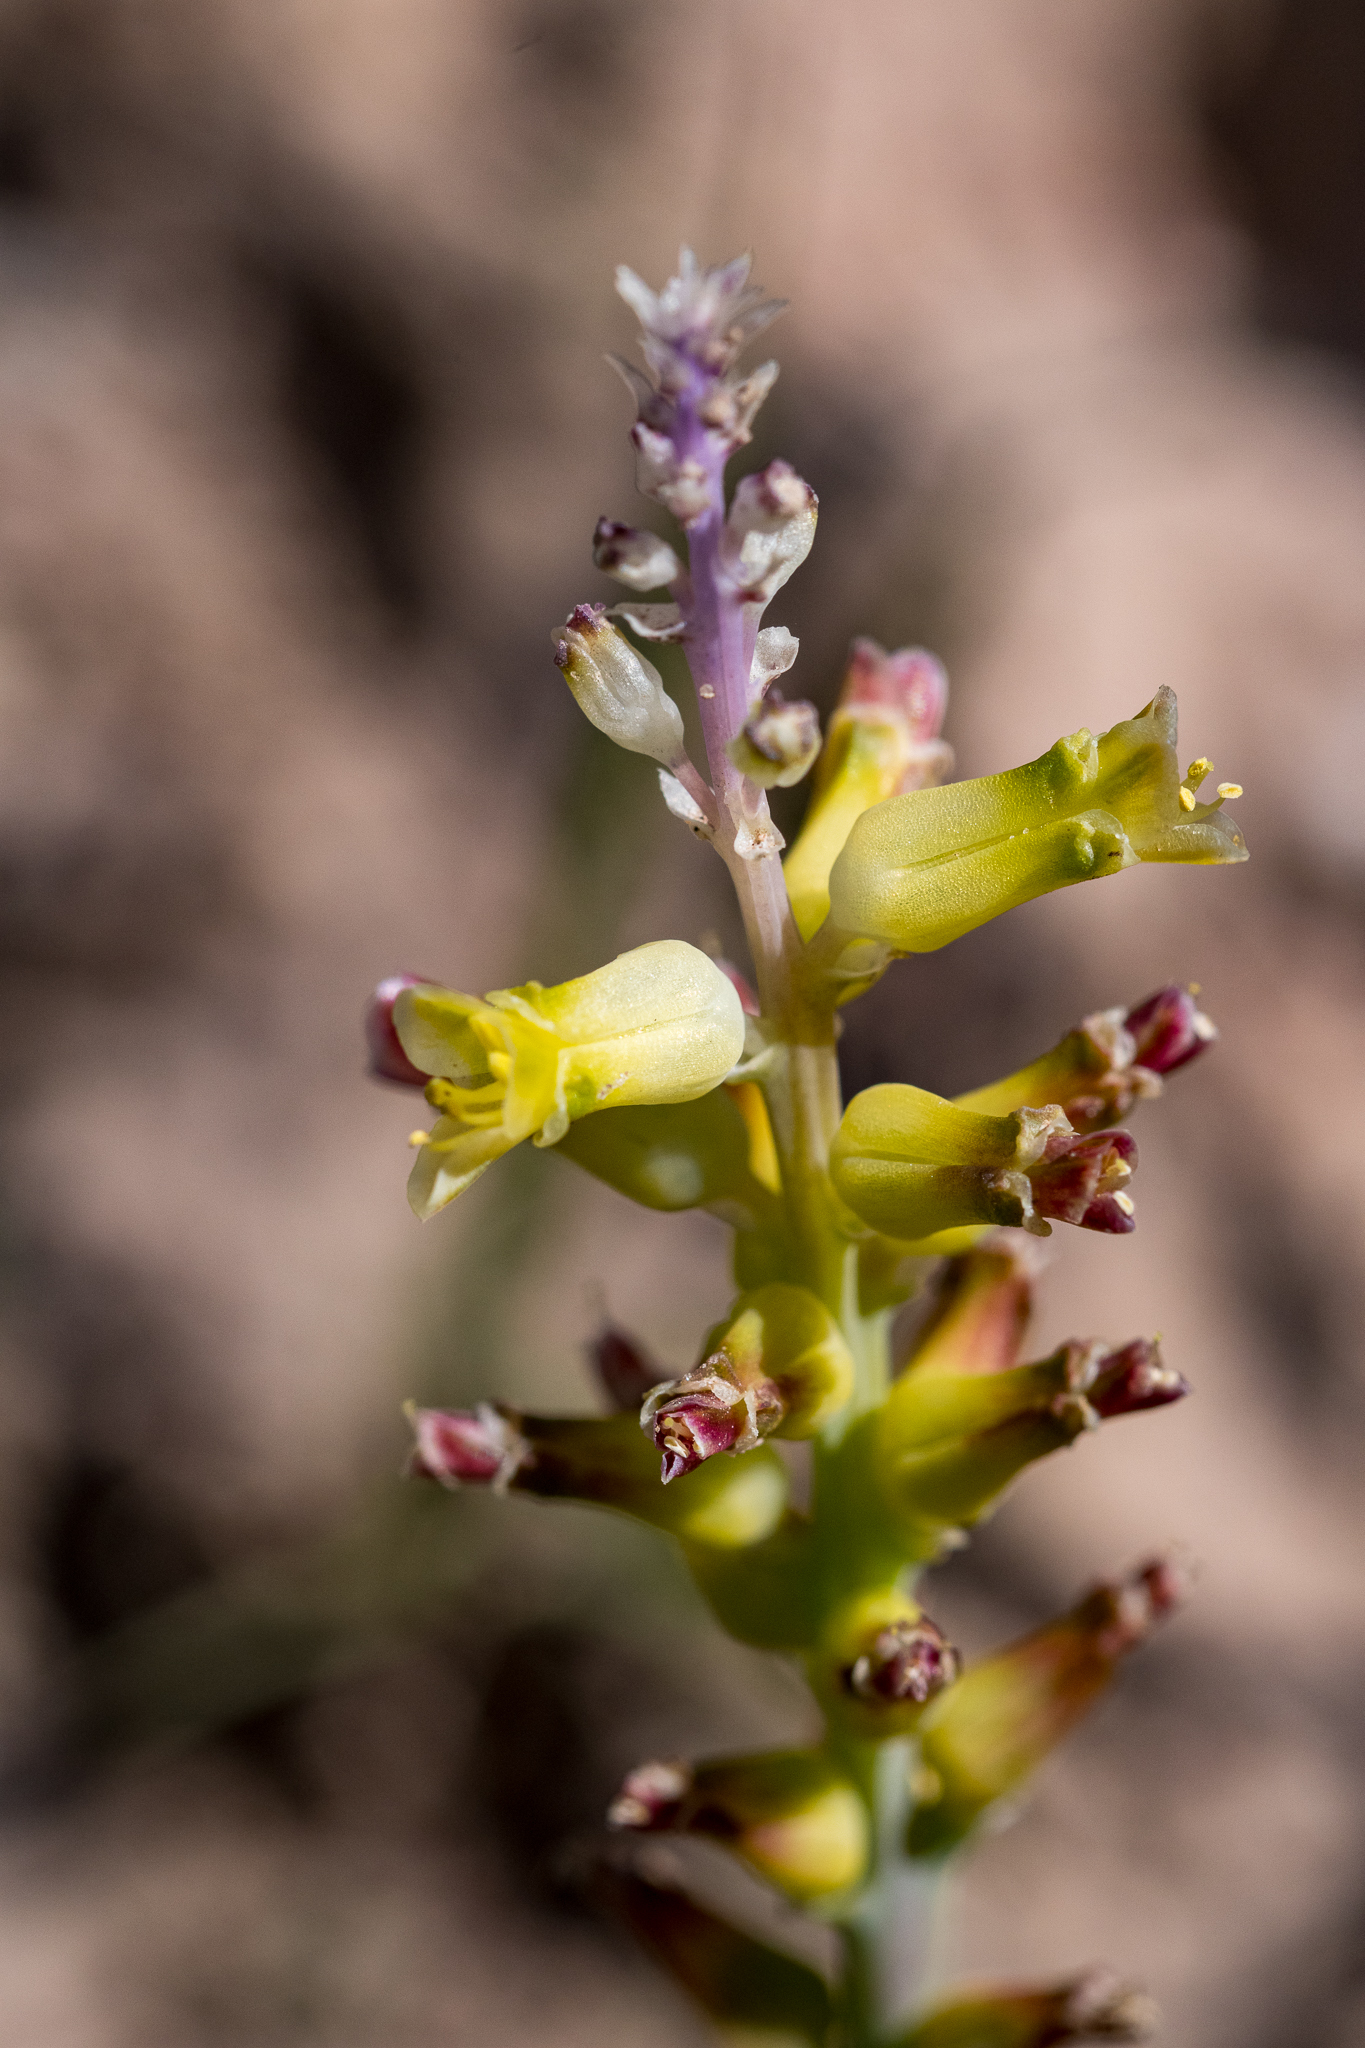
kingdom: Plantae
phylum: Tracheophyta
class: Liliopsida
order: Asparagales
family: Asparagaceae
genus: Lachenalia
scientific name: Lachenalia pallida
